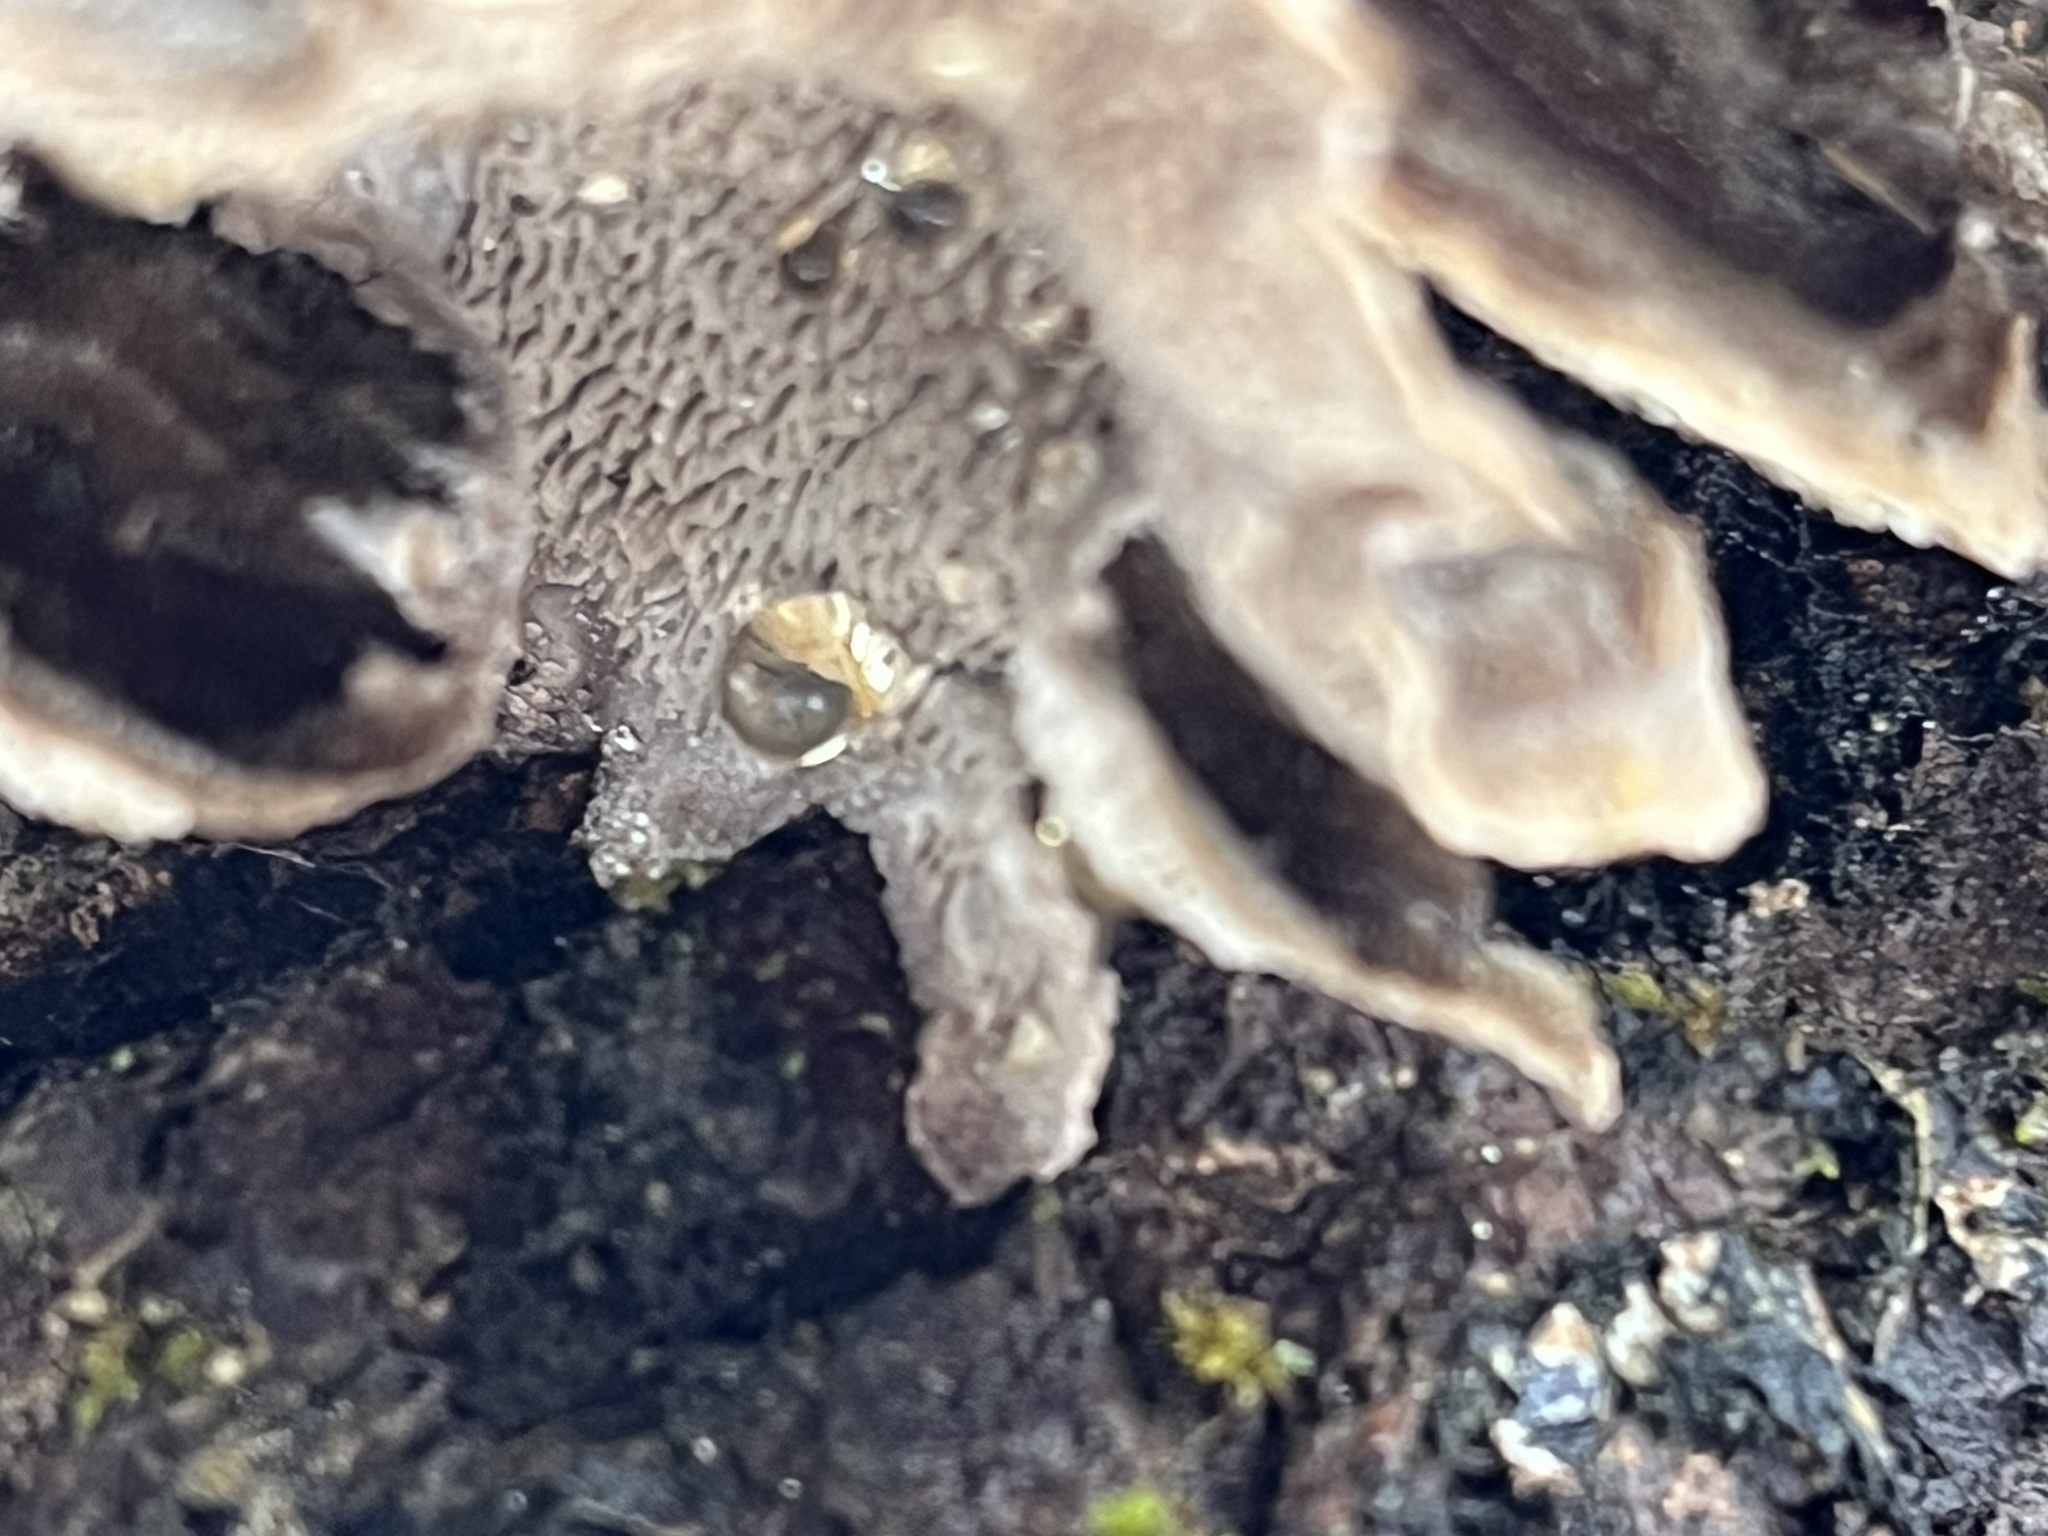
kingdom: Fungi
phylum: Basidiomycota
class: Agaricomycetes
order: Polyporales
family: Cerrenaceae
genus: Cerrena
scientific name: Cerrena unicolor
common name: Mossy maze polypore
